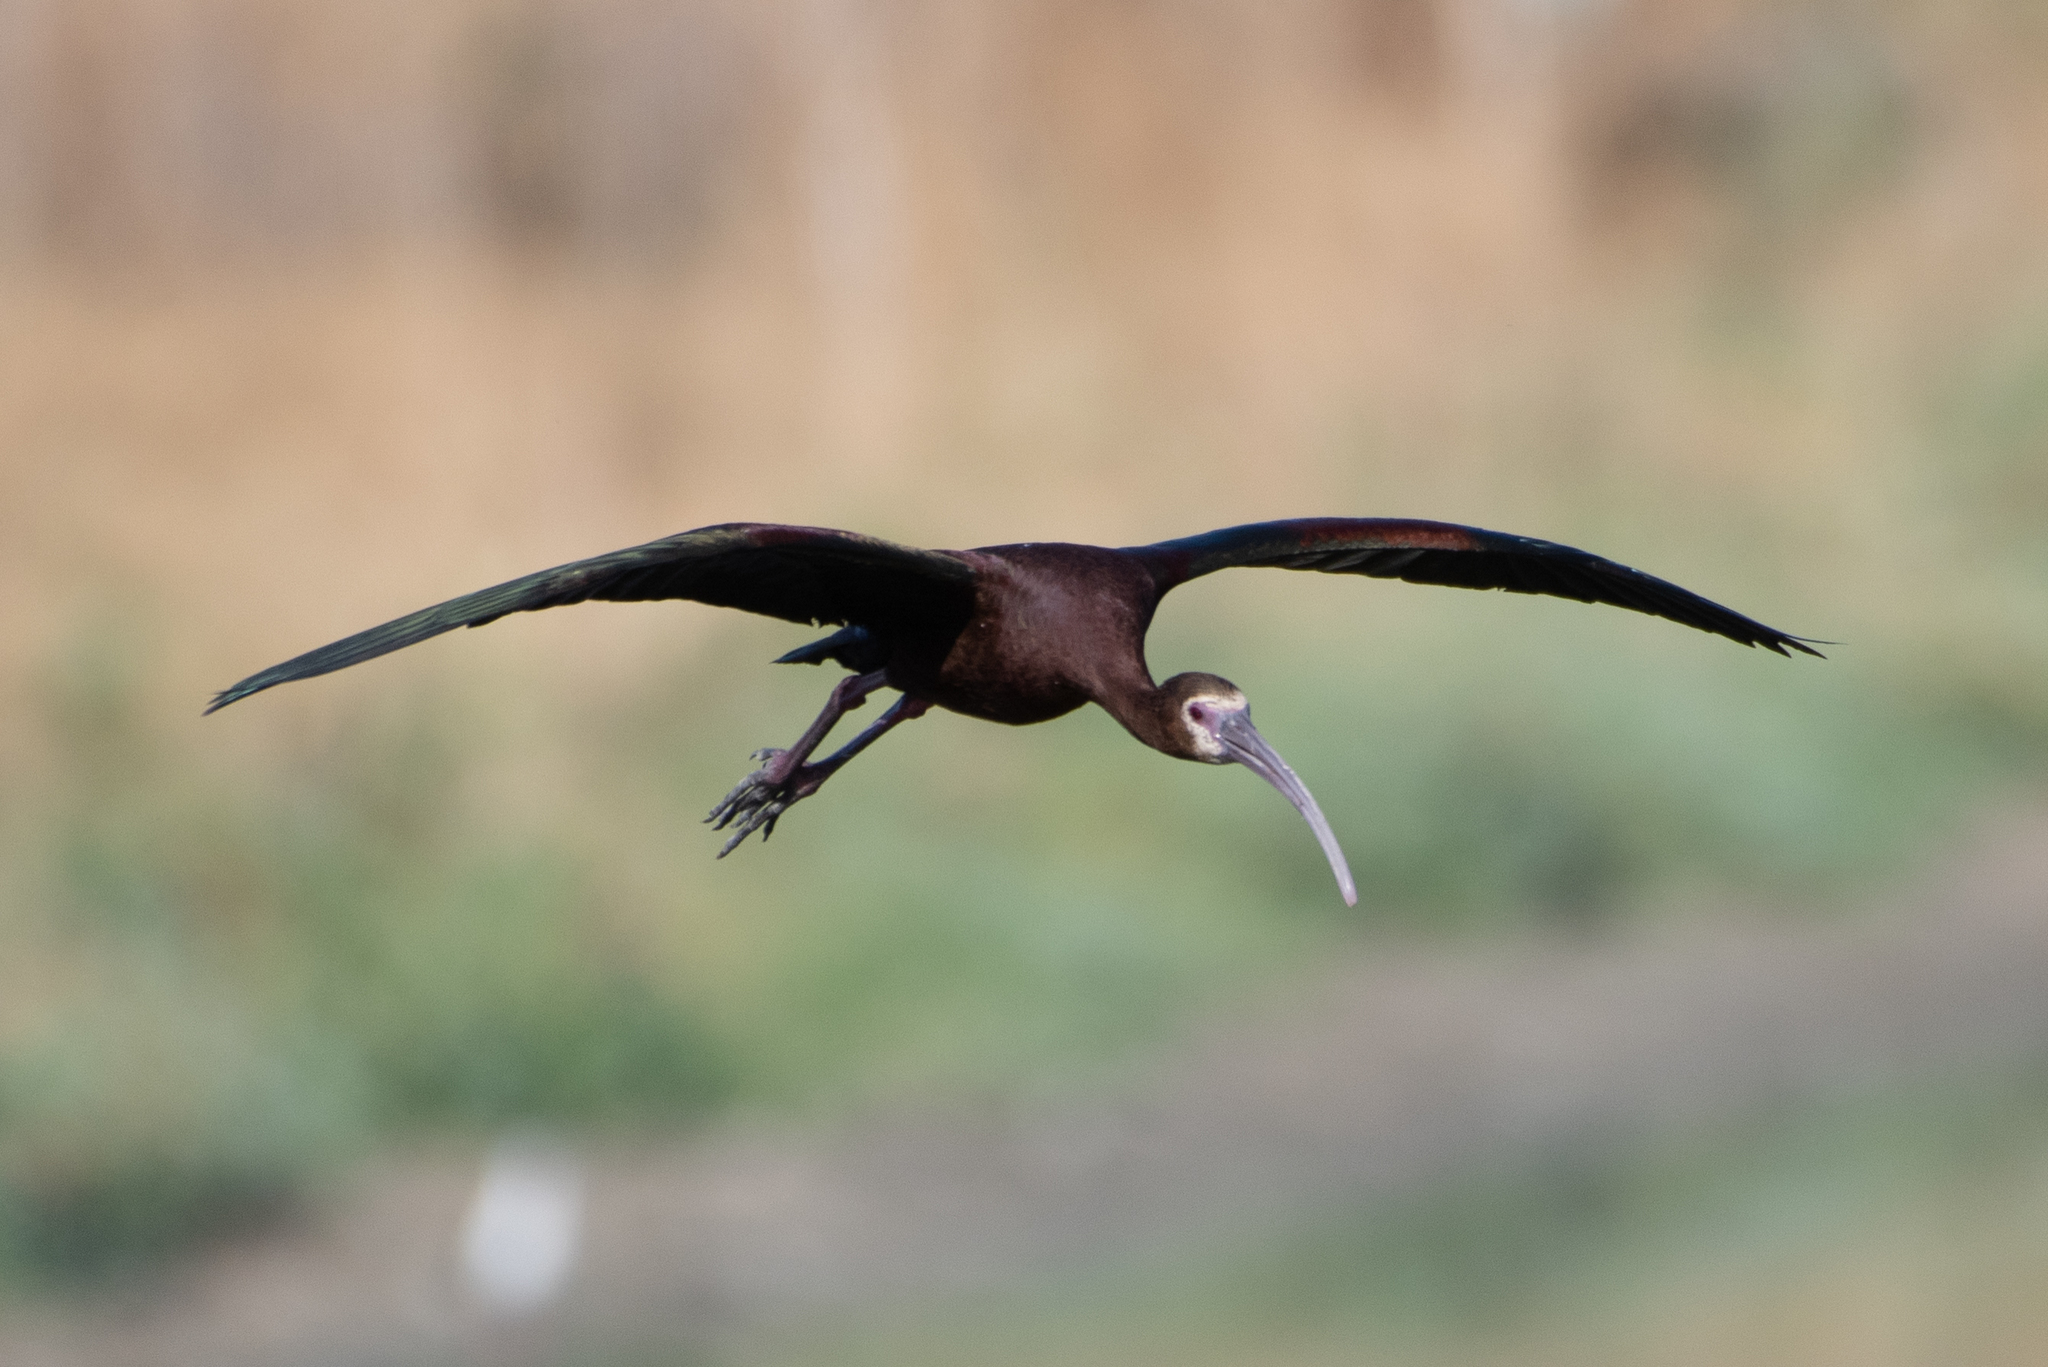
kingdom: Animalia
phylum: Chordata
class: Aves
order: Pelecaniformes
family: Threskiornithidae
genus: Plegadis
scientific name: Plegadis chihi
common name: White-faced ibis
